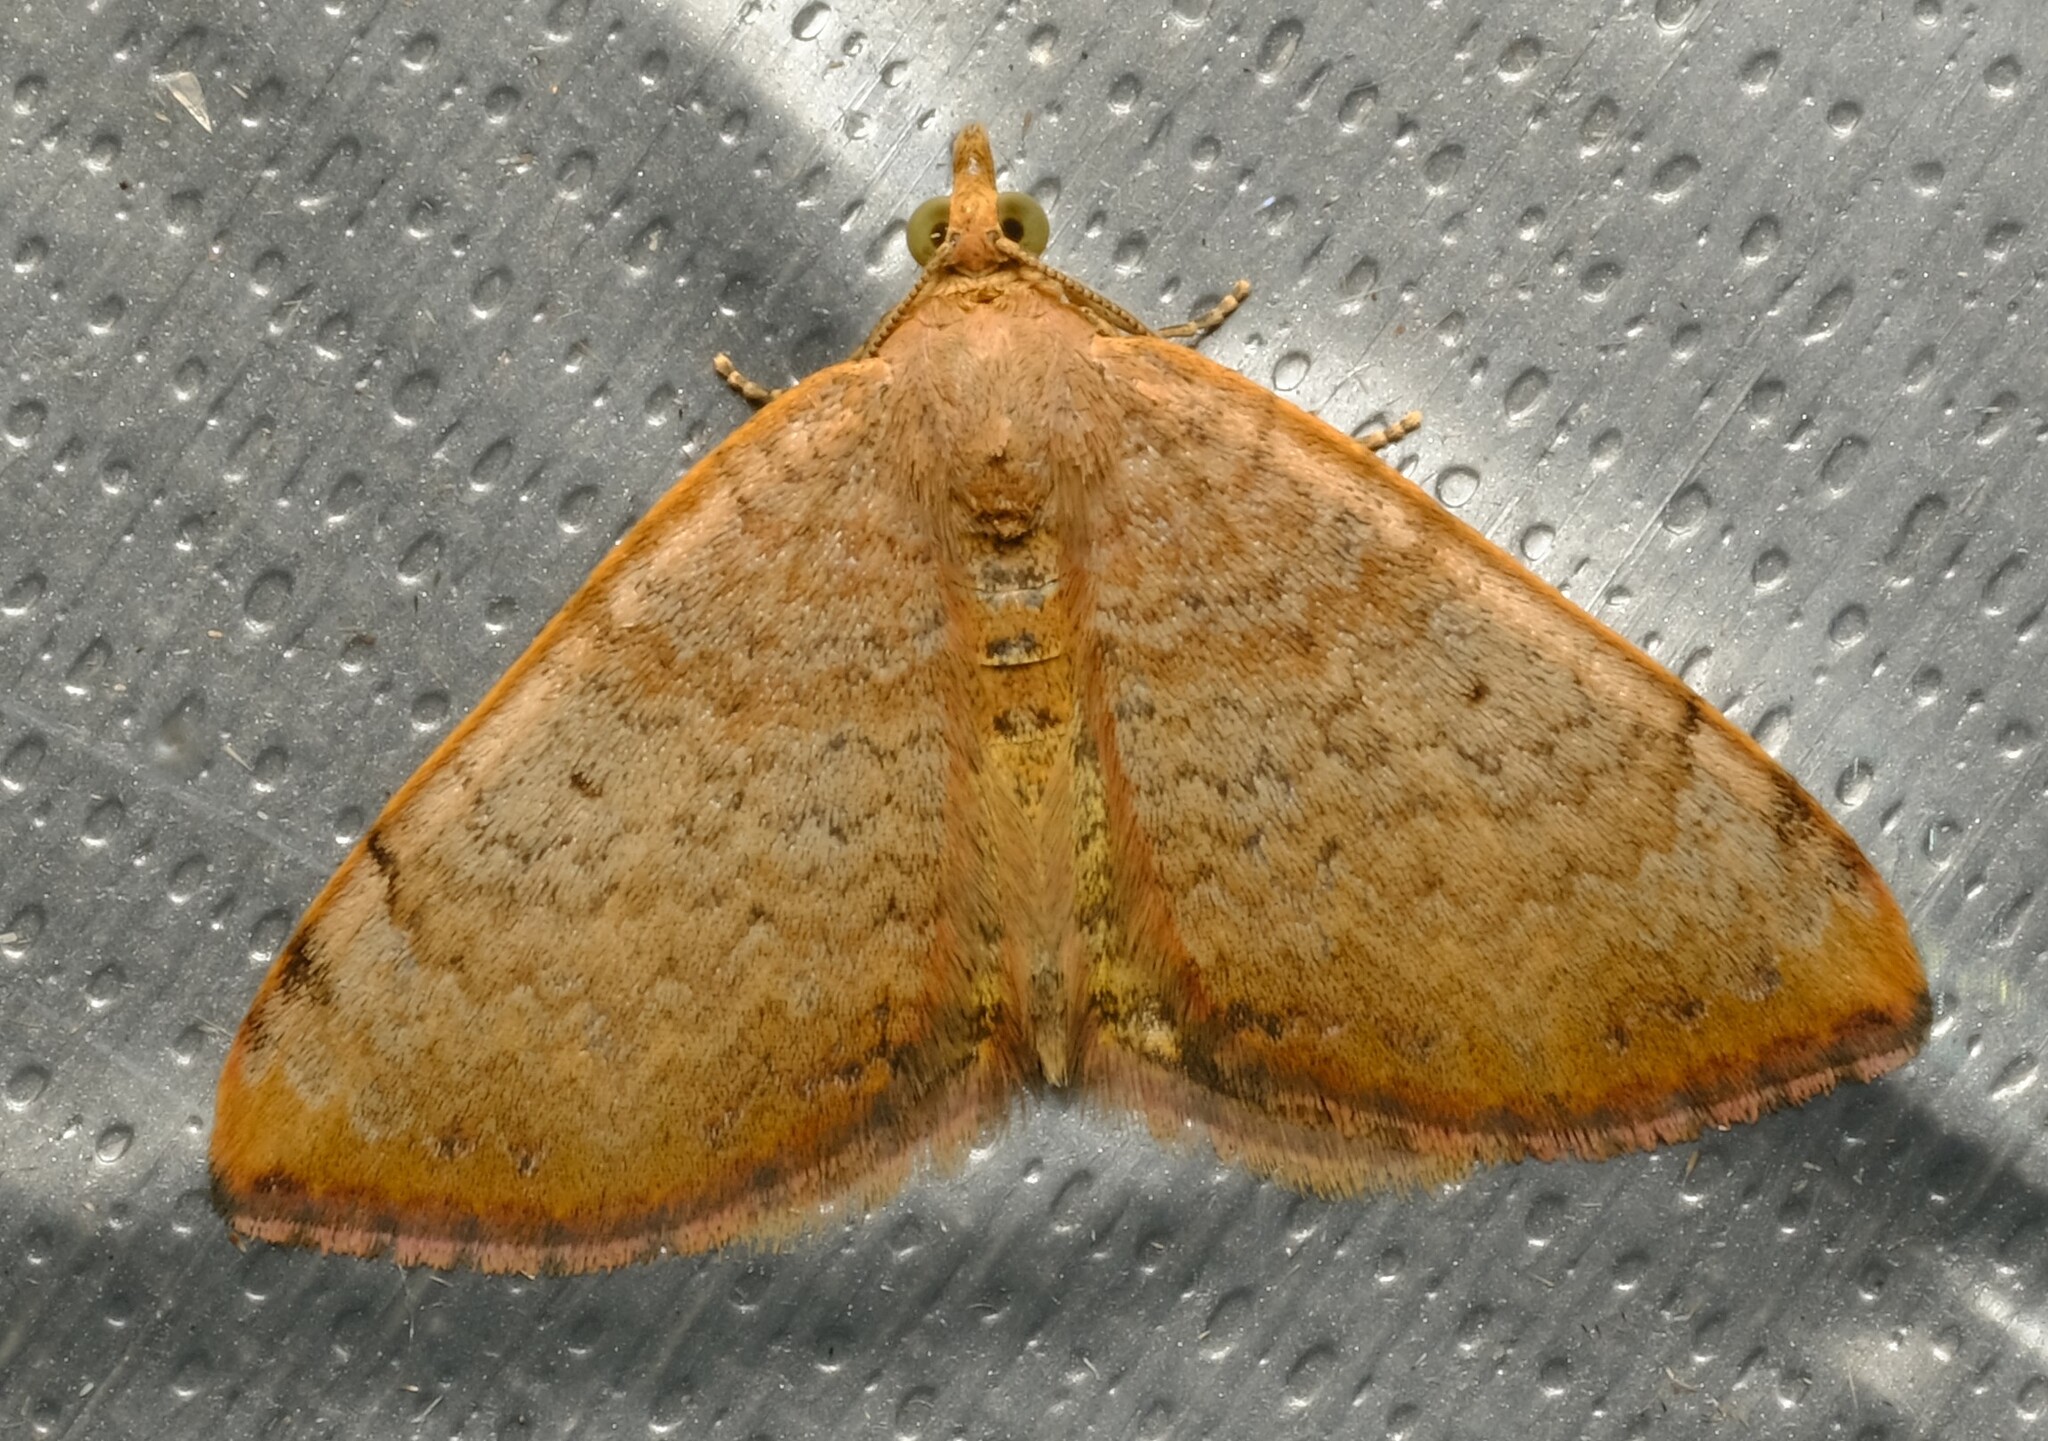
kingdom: Animalia
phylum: Arthropoda
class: Insecta
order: Lepidoptera
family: Geometridae
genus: Chrysolarentia
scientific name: Chrysolarentia mecynata
